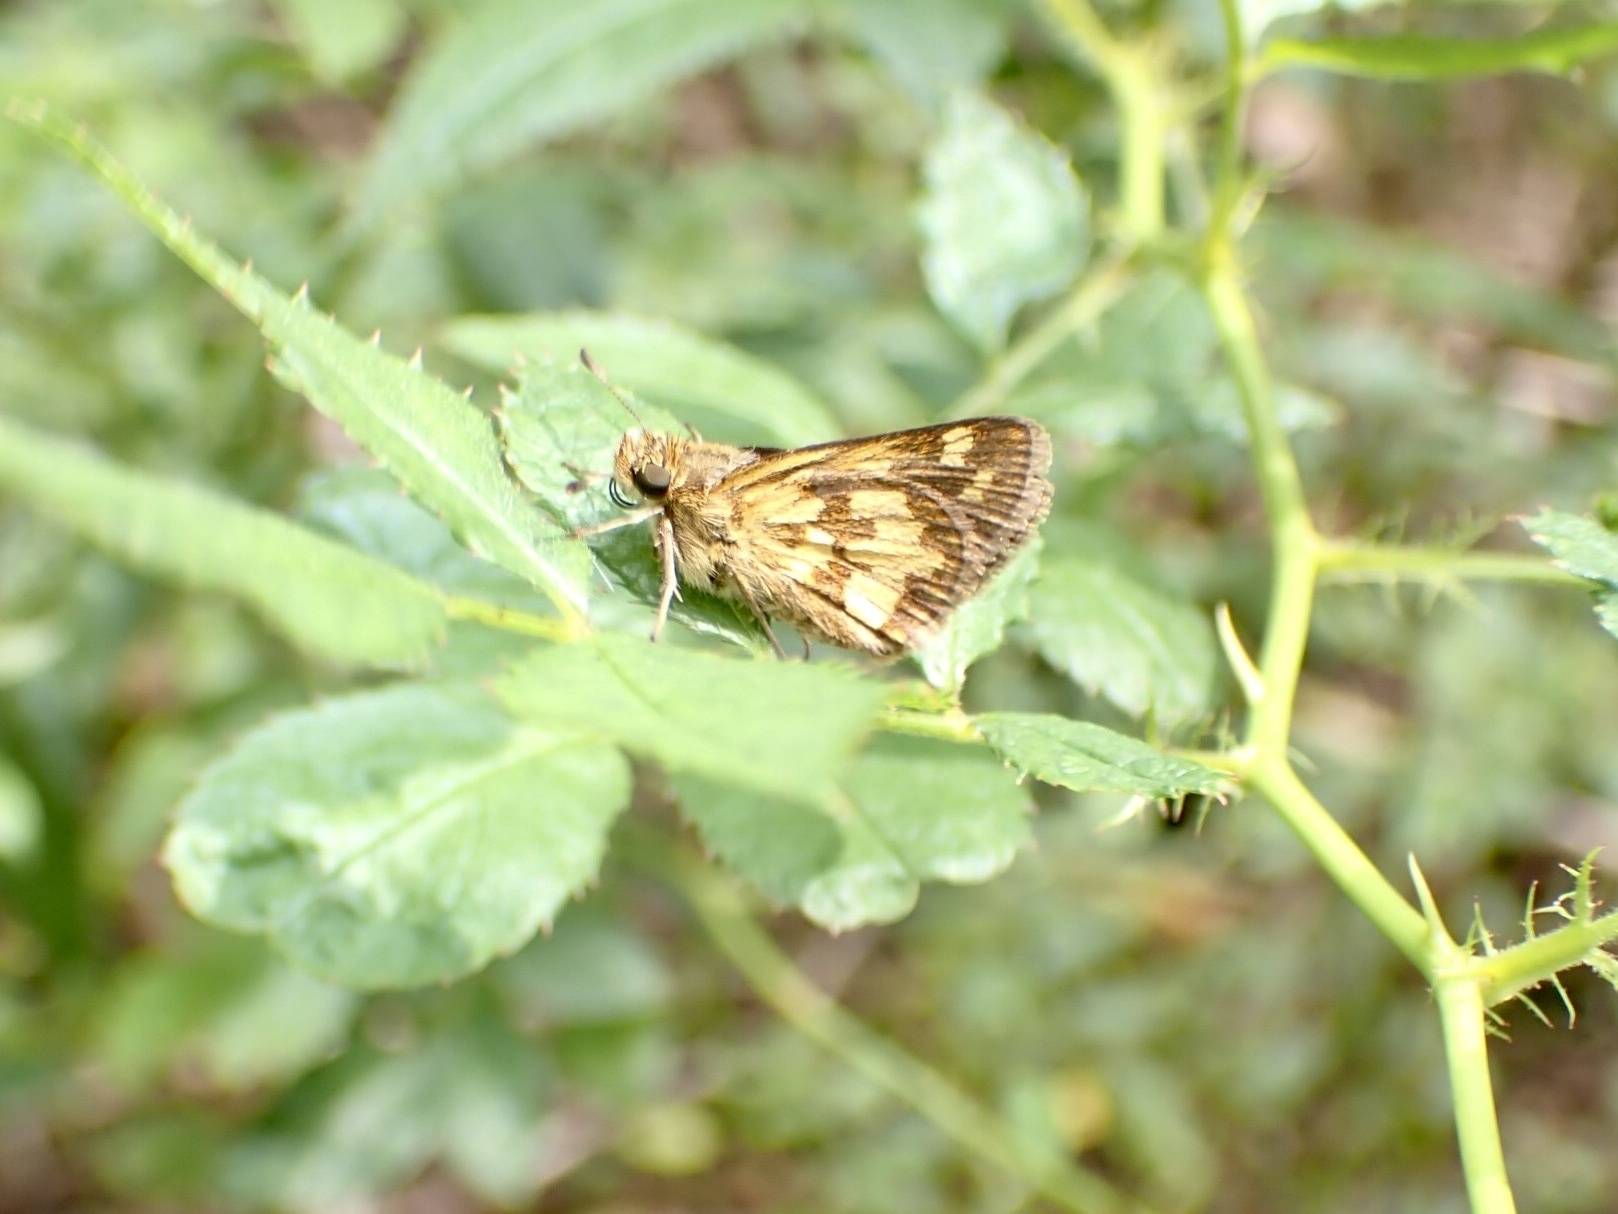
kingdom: Animalia
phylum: Arthropoda
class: Insecta
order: Lepidoptera
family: Hesperiidae
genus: Polites
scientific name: Polites coras
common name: Peck's skipper
